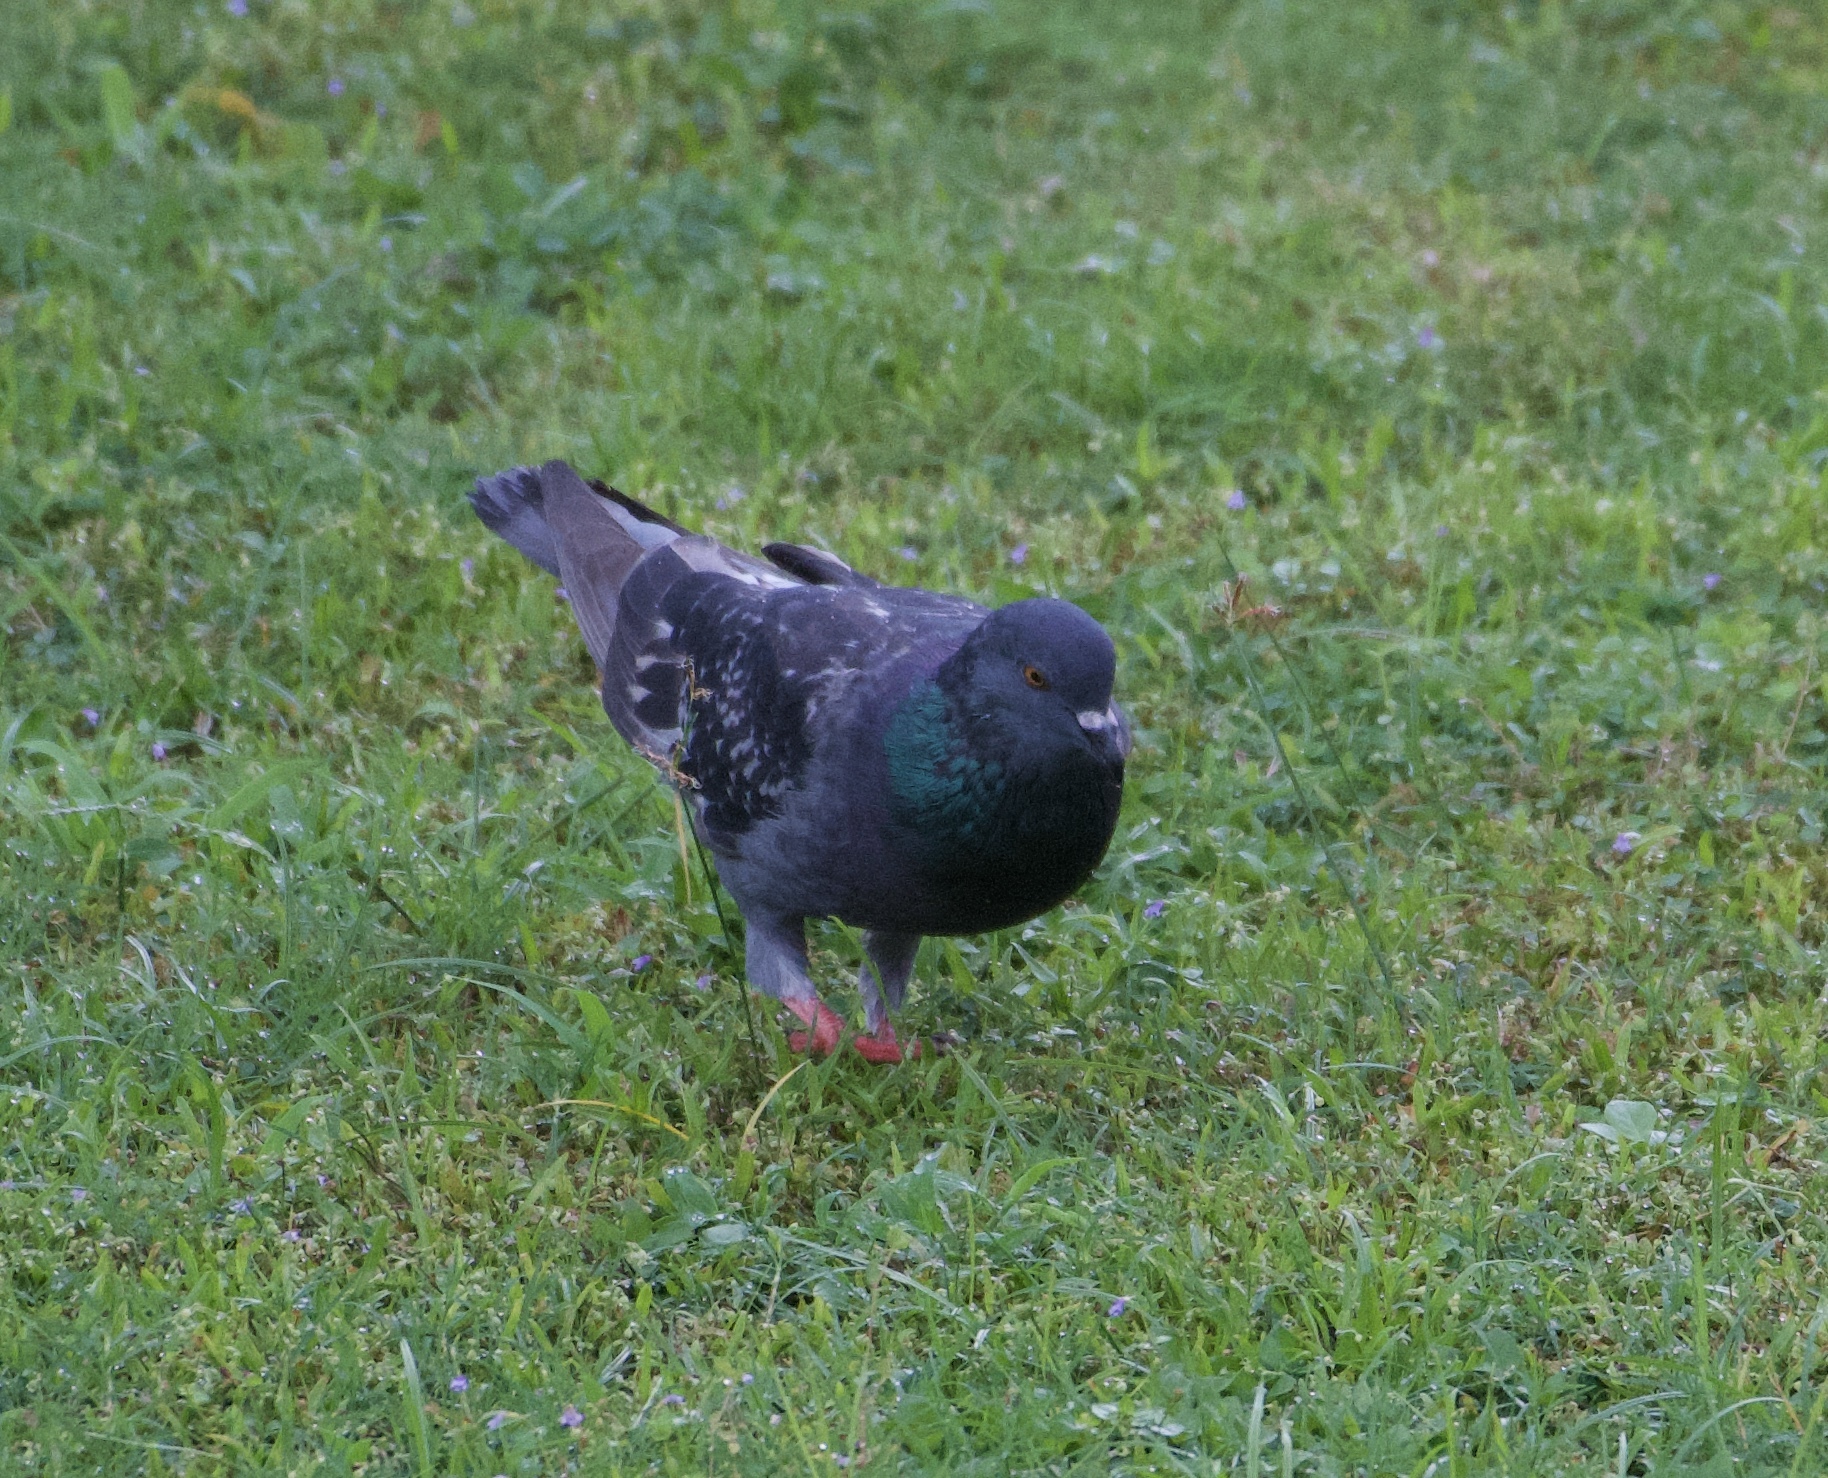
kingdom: Animalia
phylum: Chordata
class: Aves
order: Columbiformes
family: Columbidae
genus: Columba
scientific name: Columba livia
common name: Rock pigeon
